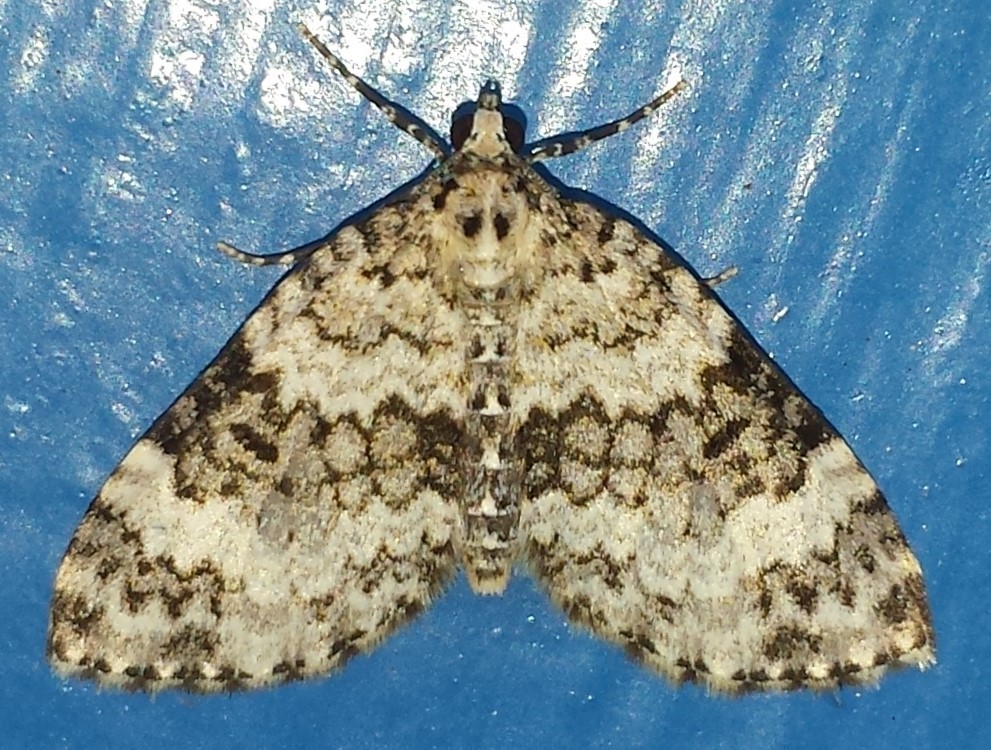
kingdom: Animalia
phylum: Arthropoda
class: Insecta
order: Lepidoptera
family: Geometridae
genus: Spargania
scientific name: Spargania magnoliata
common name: Double-banded carpet
